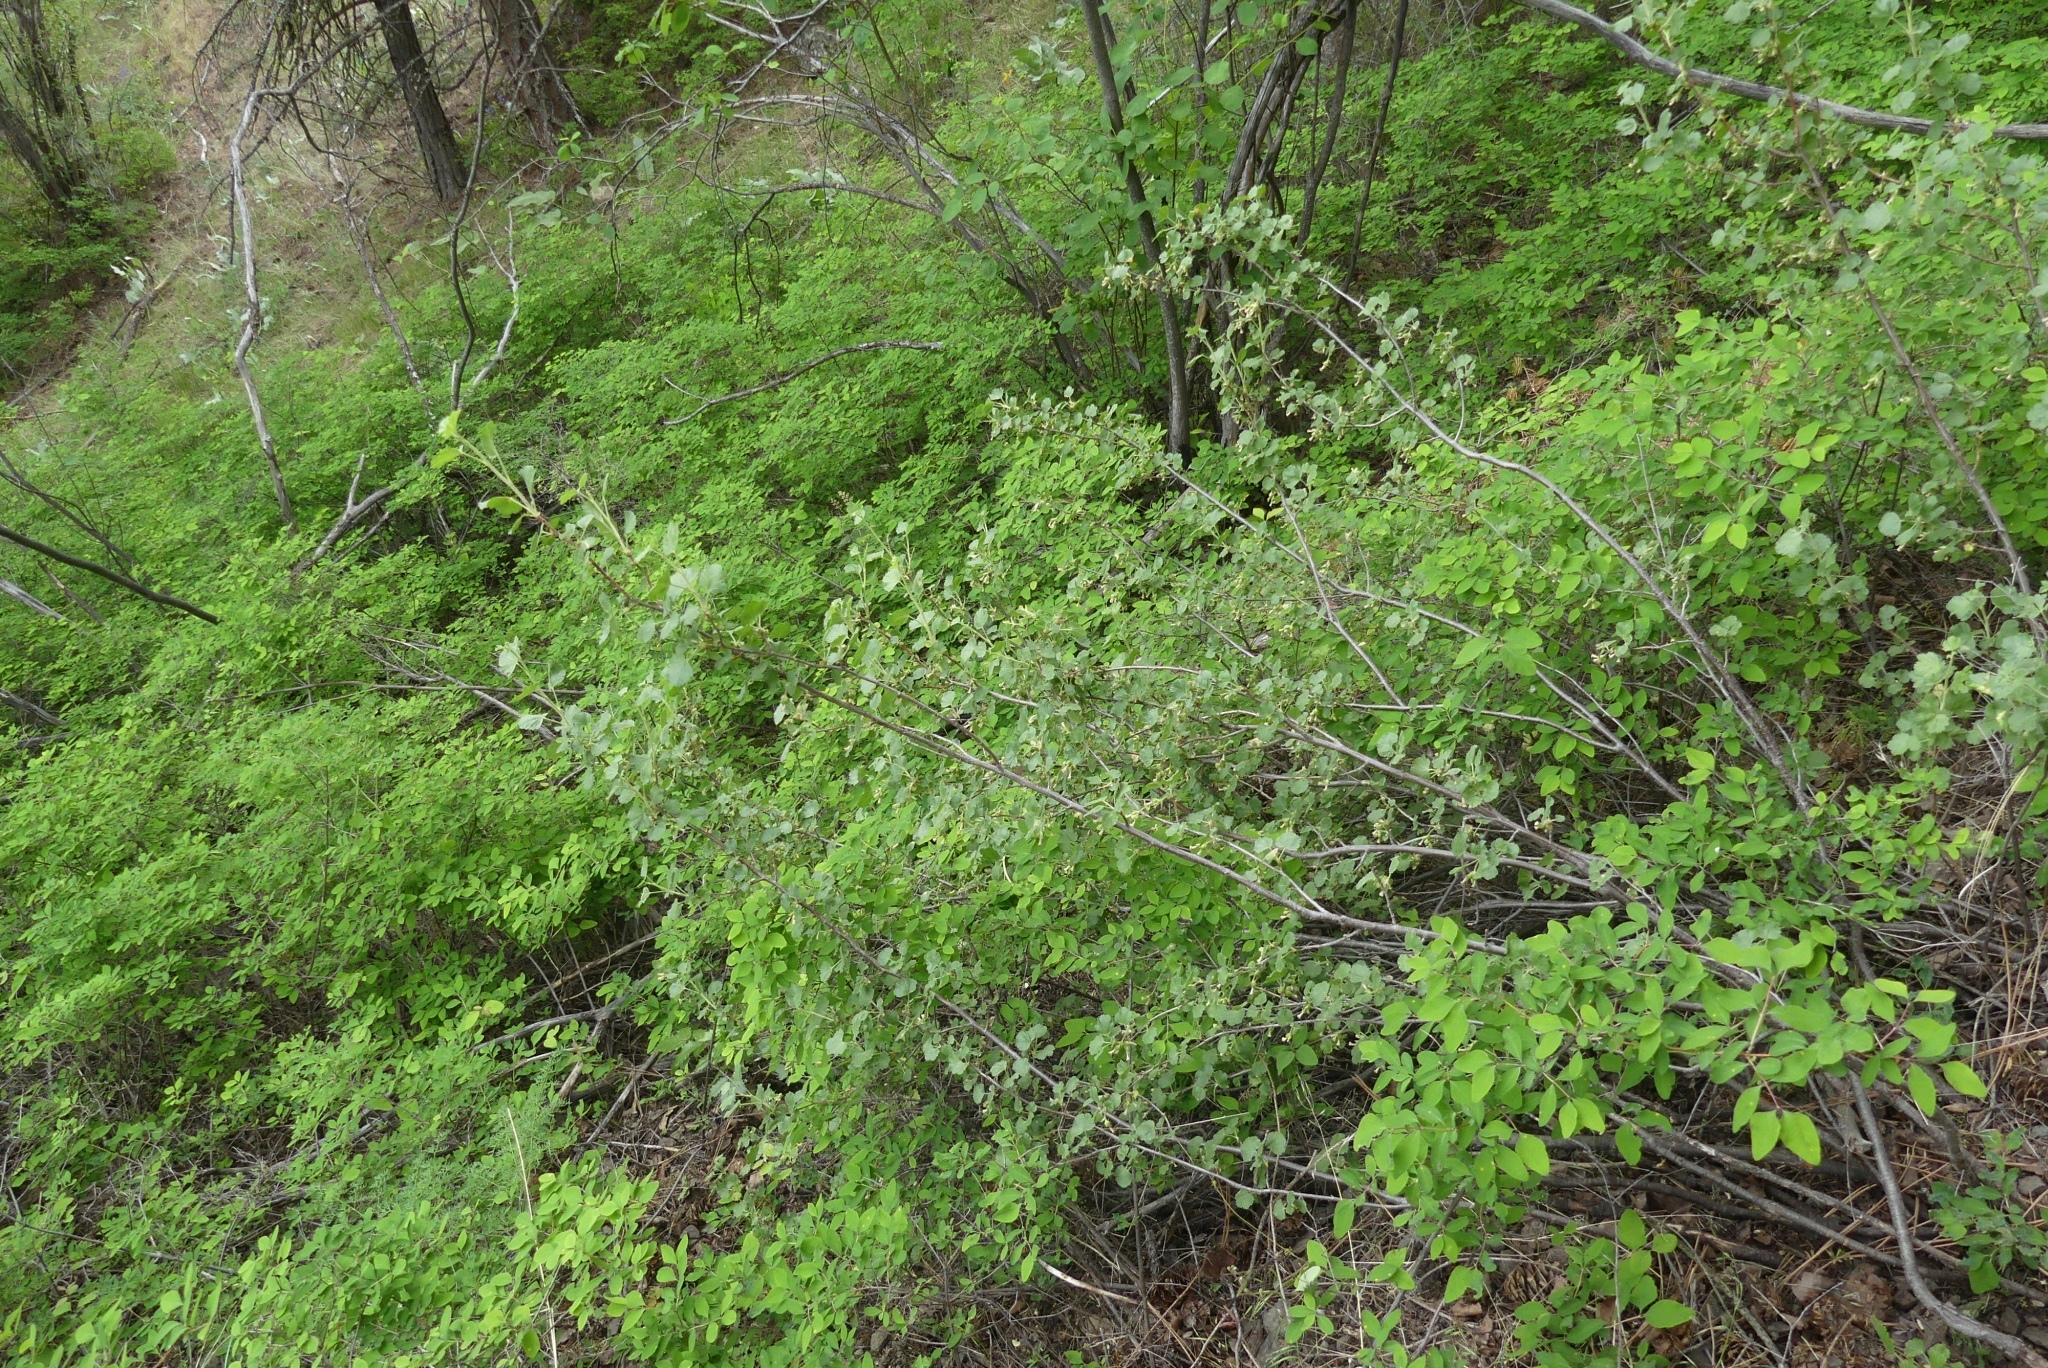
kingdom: Plantae
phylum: Tracheophyta
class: Magnoliopsida
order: Saxifragales
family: Grossulariaceae
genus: Ribes
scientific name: Ribes cereum
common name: Wax currant
